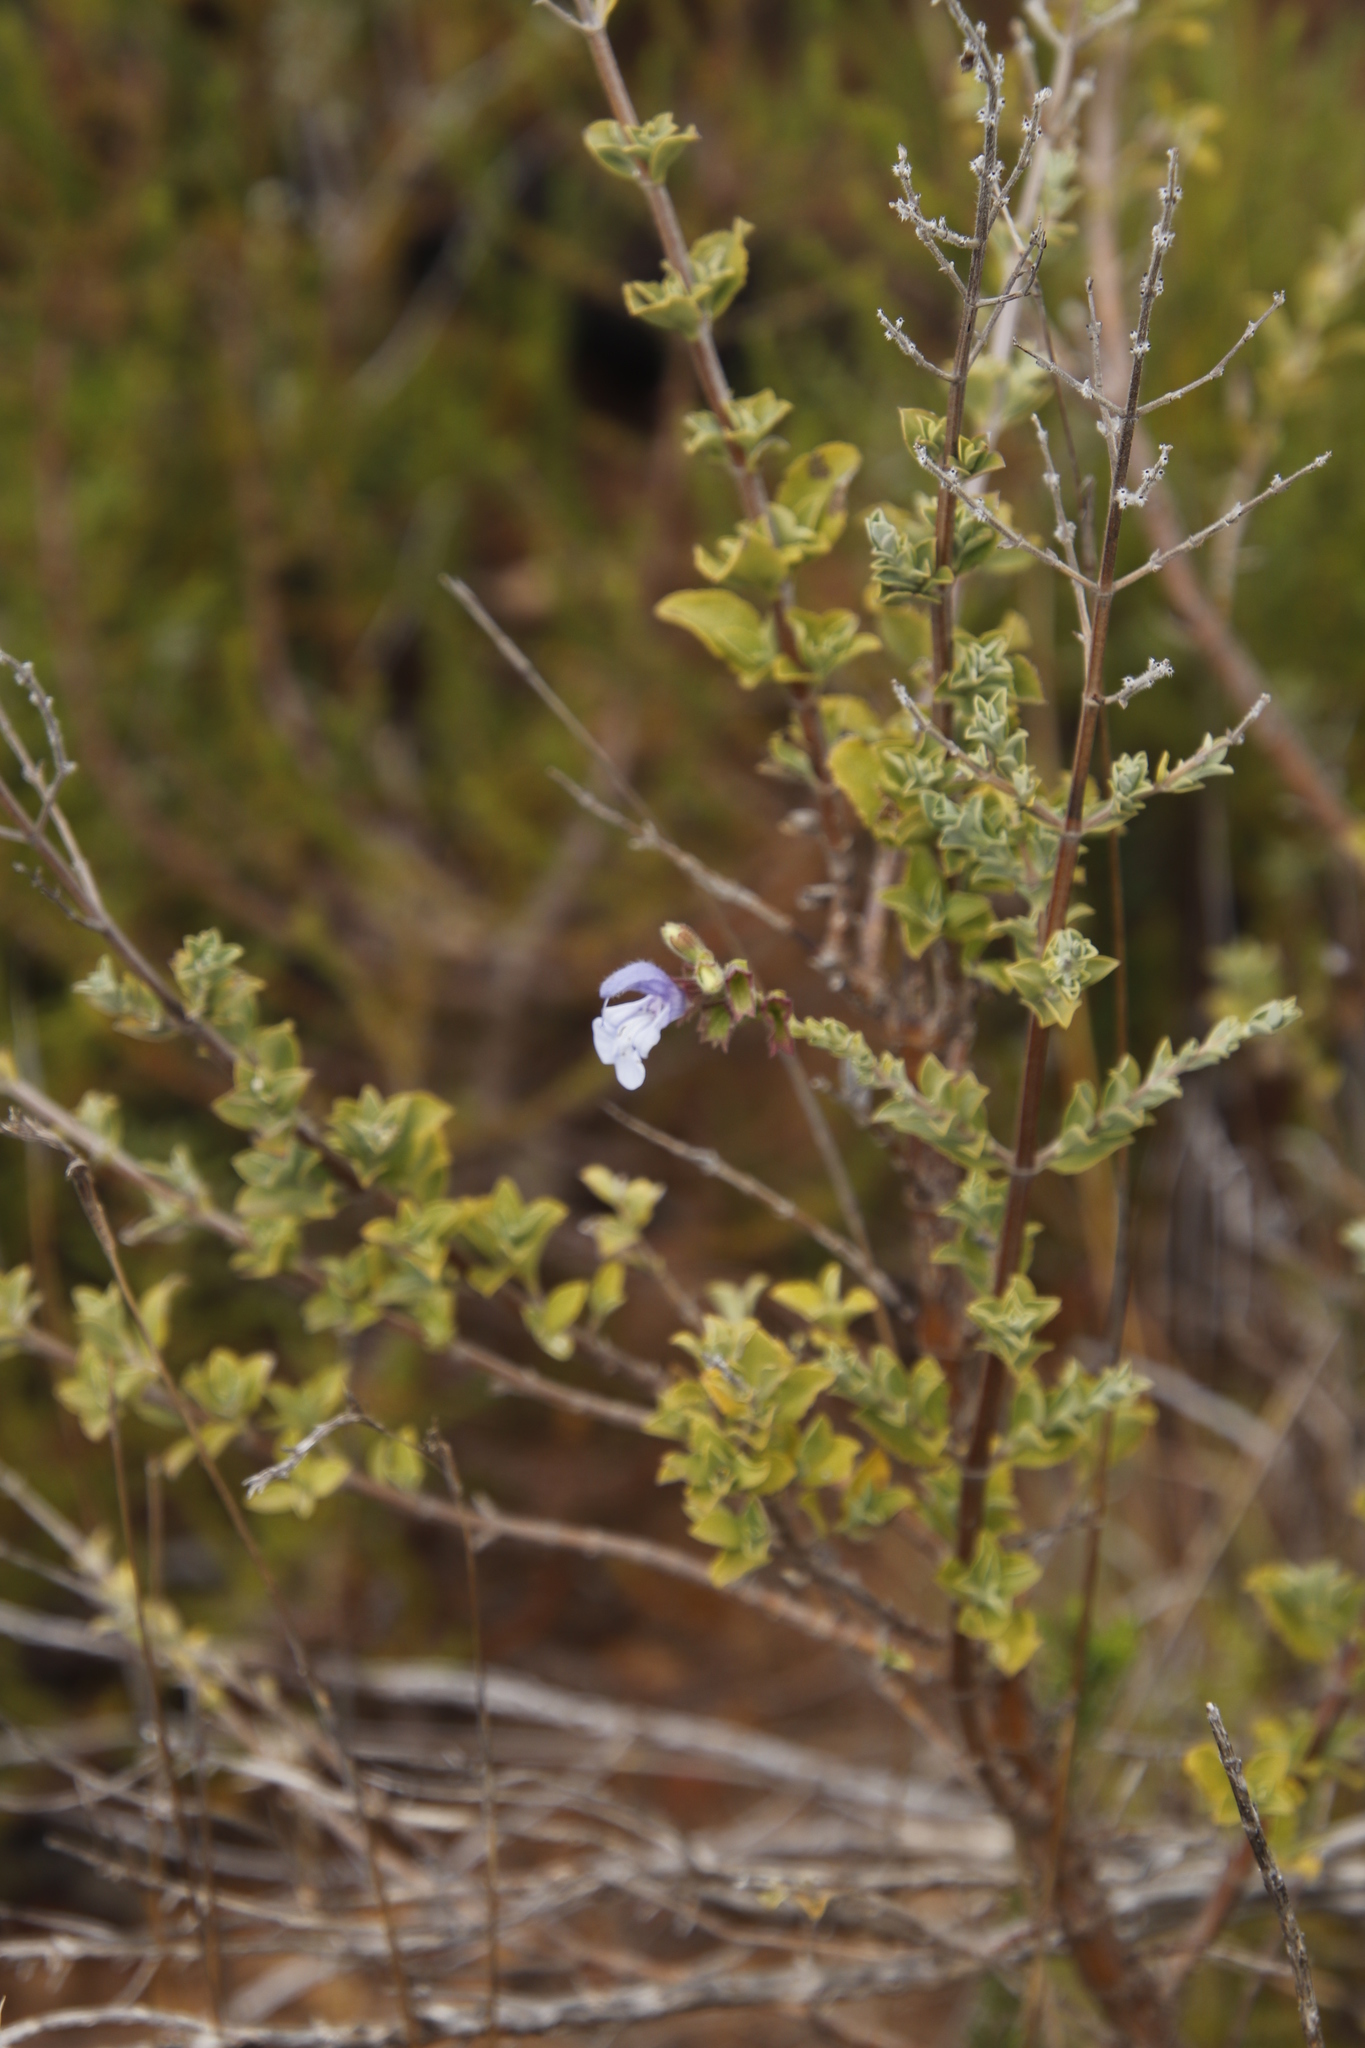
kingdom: Plantae
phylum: Tracheophyta
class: Magnoliopsida
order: Lamiales
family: Lamiaceae
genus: Salvia
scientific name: Salvia africana
